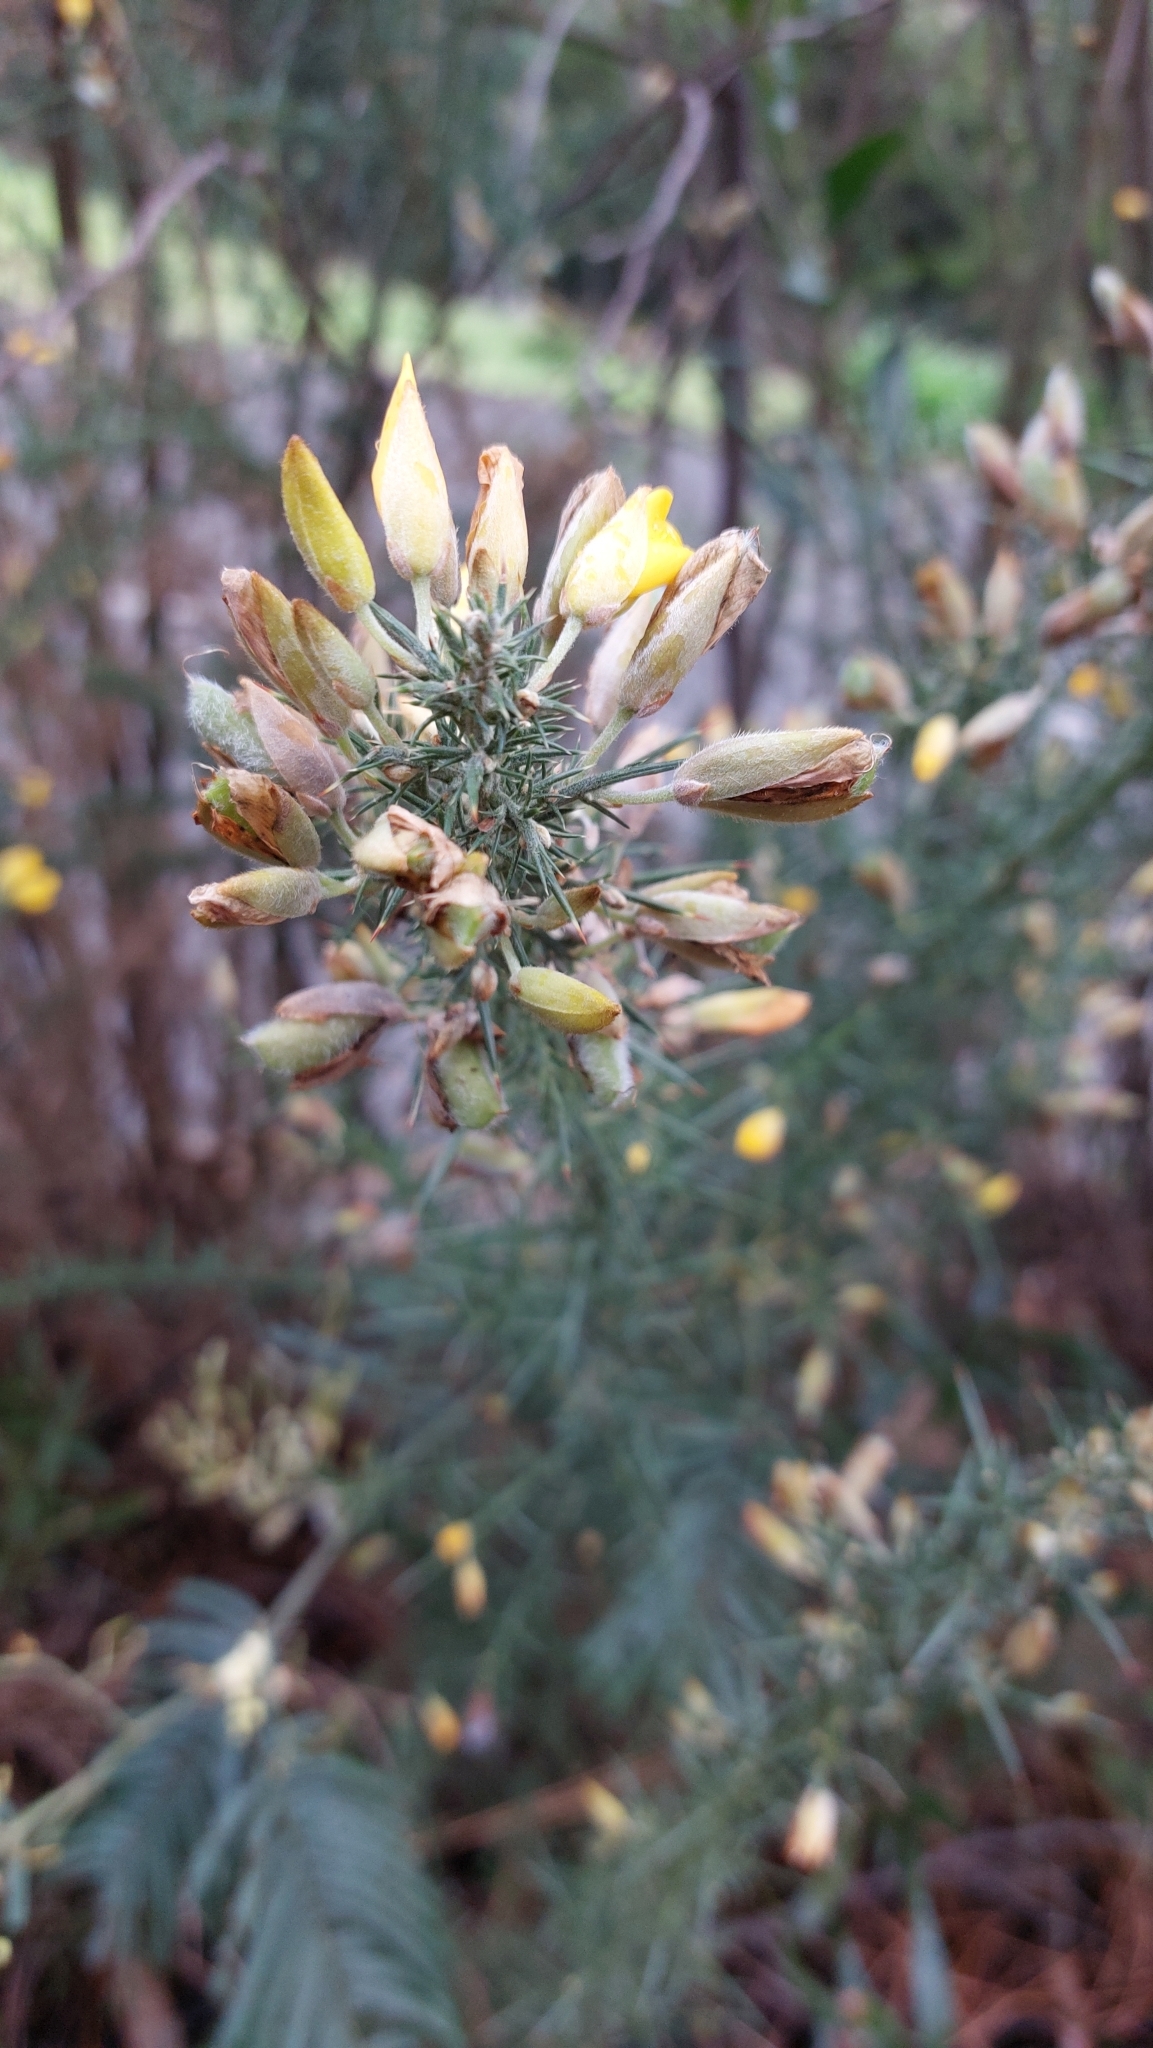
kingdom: Plantae
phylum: Tracheophyta
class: Magnoliopsida
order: Fabales
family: Fabaceae
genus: Ulex
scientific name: Ulex europaeus
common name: Common gorse
